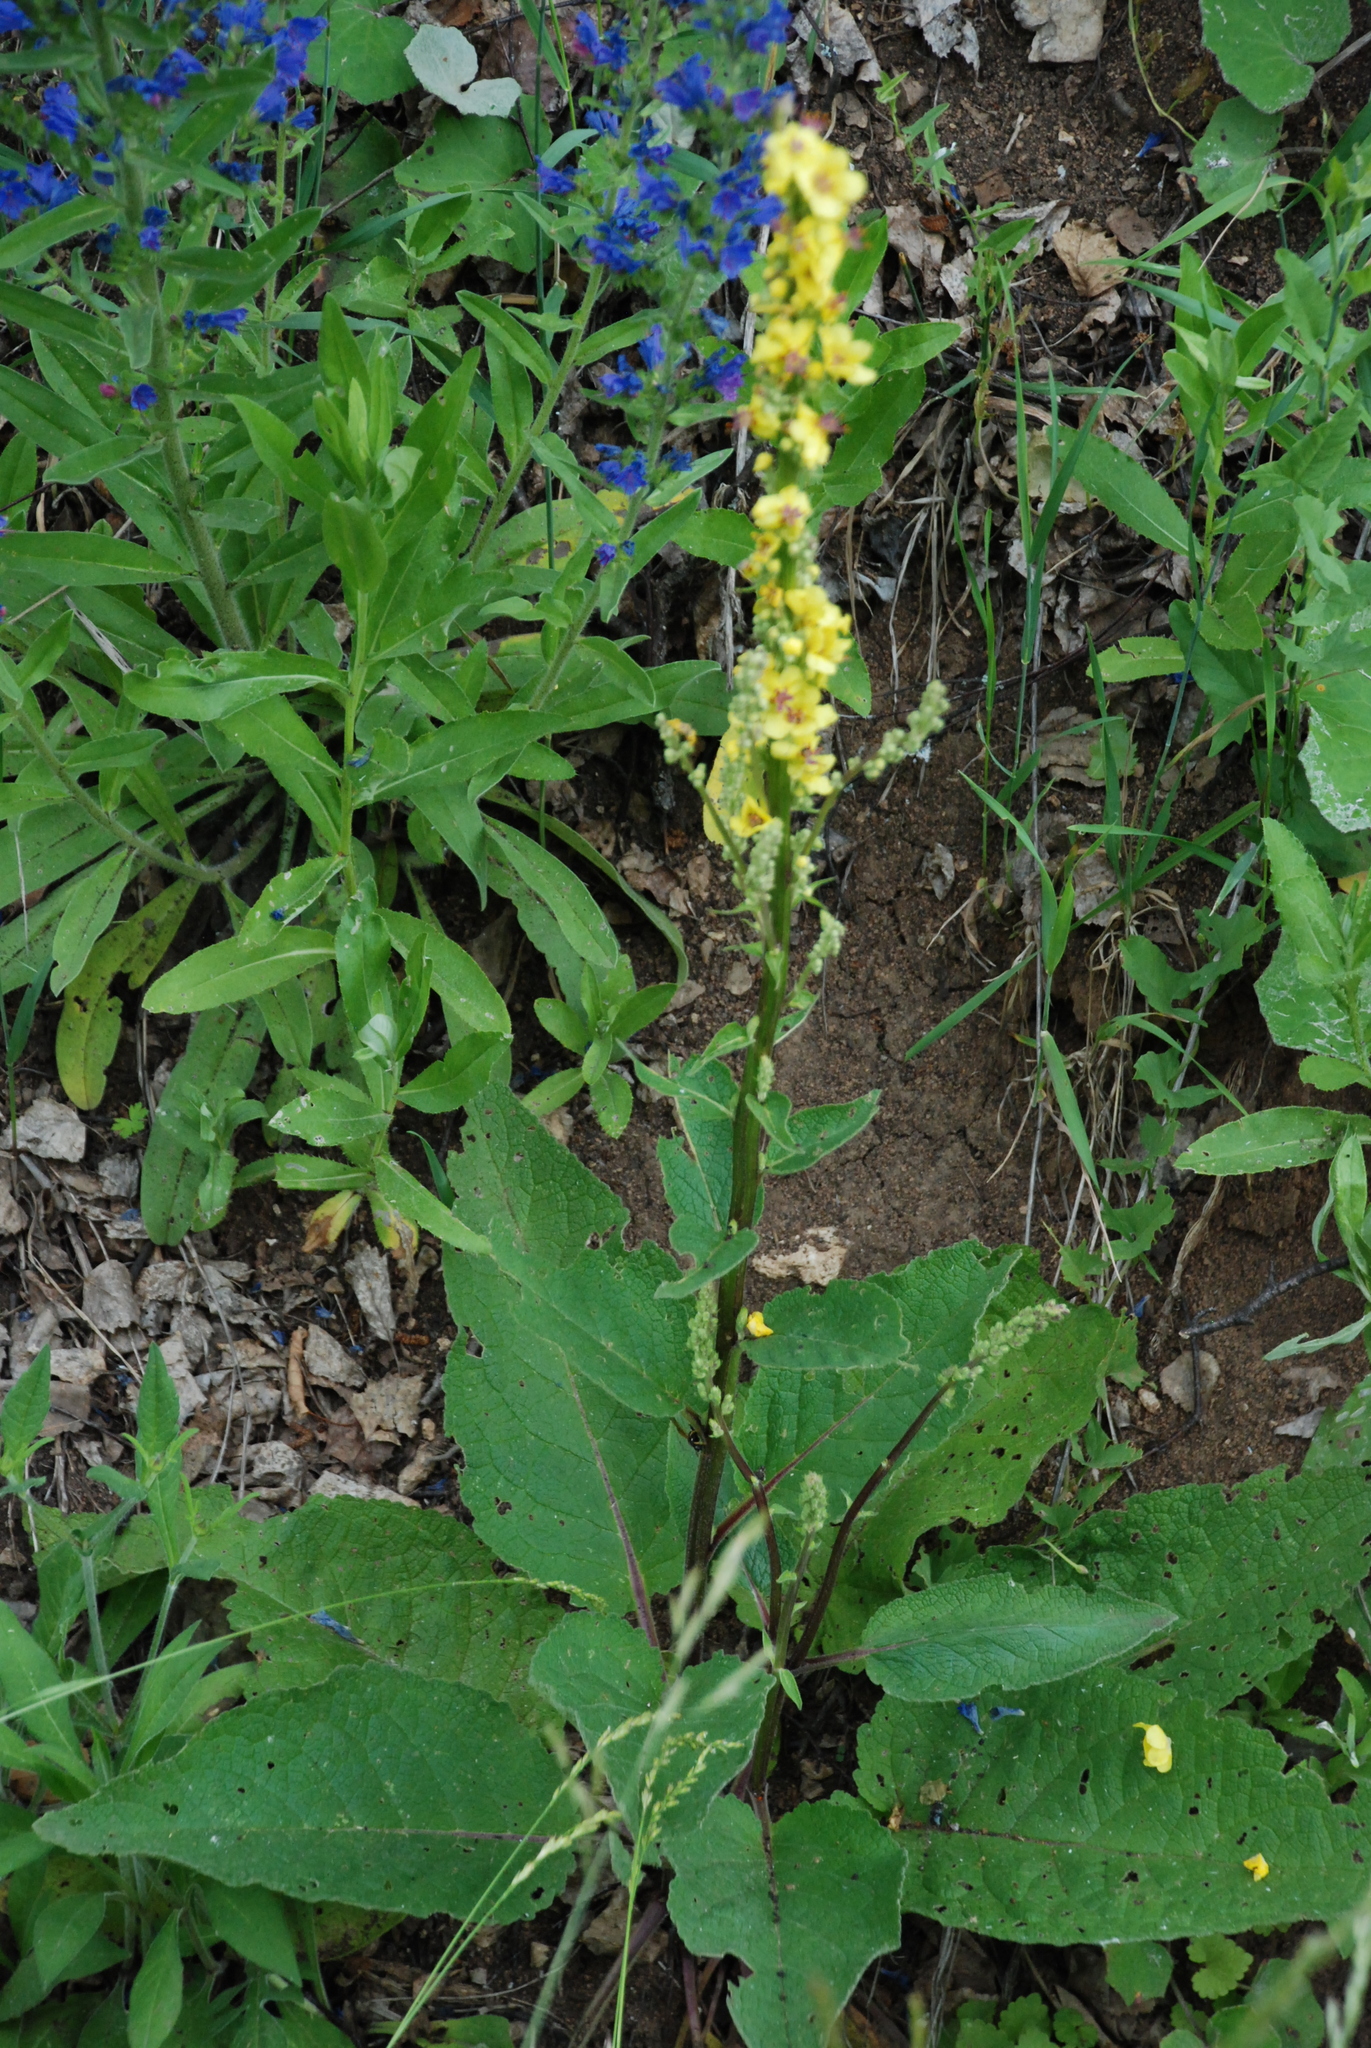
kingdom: Plantae
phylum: Tracheophyta
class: Magnoliopsida
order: Lamiales
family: Scrophulariaceae
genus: Verbascum
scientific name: Verbascum nigrum
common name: Dark mullein
